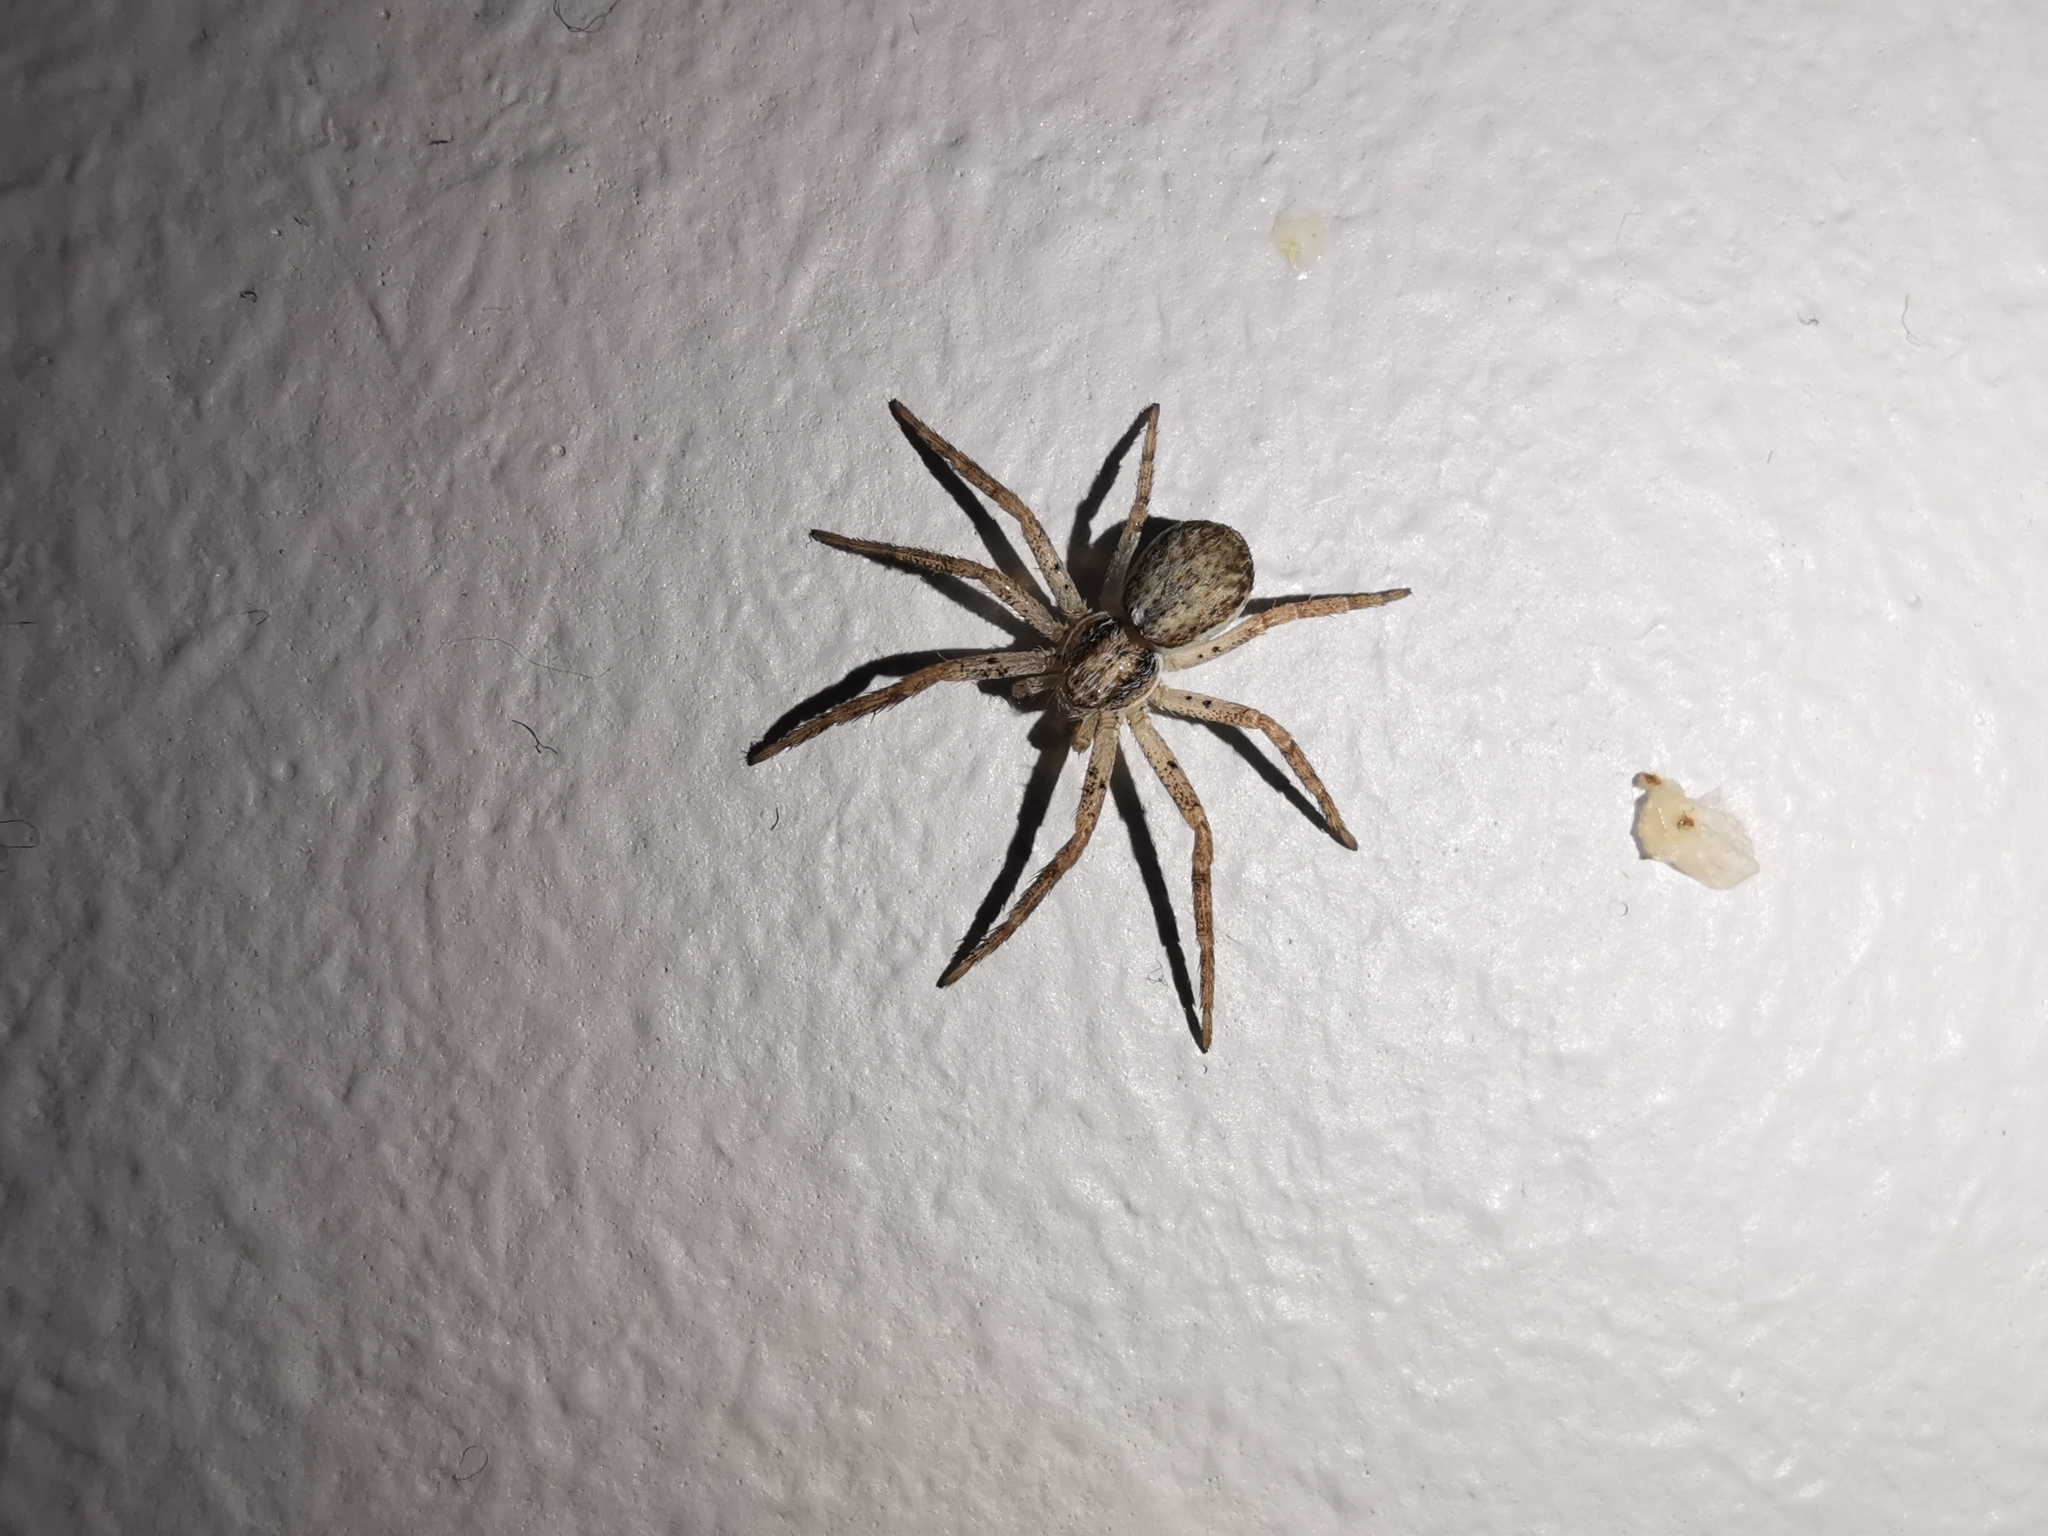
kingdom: Animalia
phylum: Arthropoda
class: Arachnida
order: Araneae
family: Philodromidae
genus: Philodromus
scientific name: Philodromus dispar
